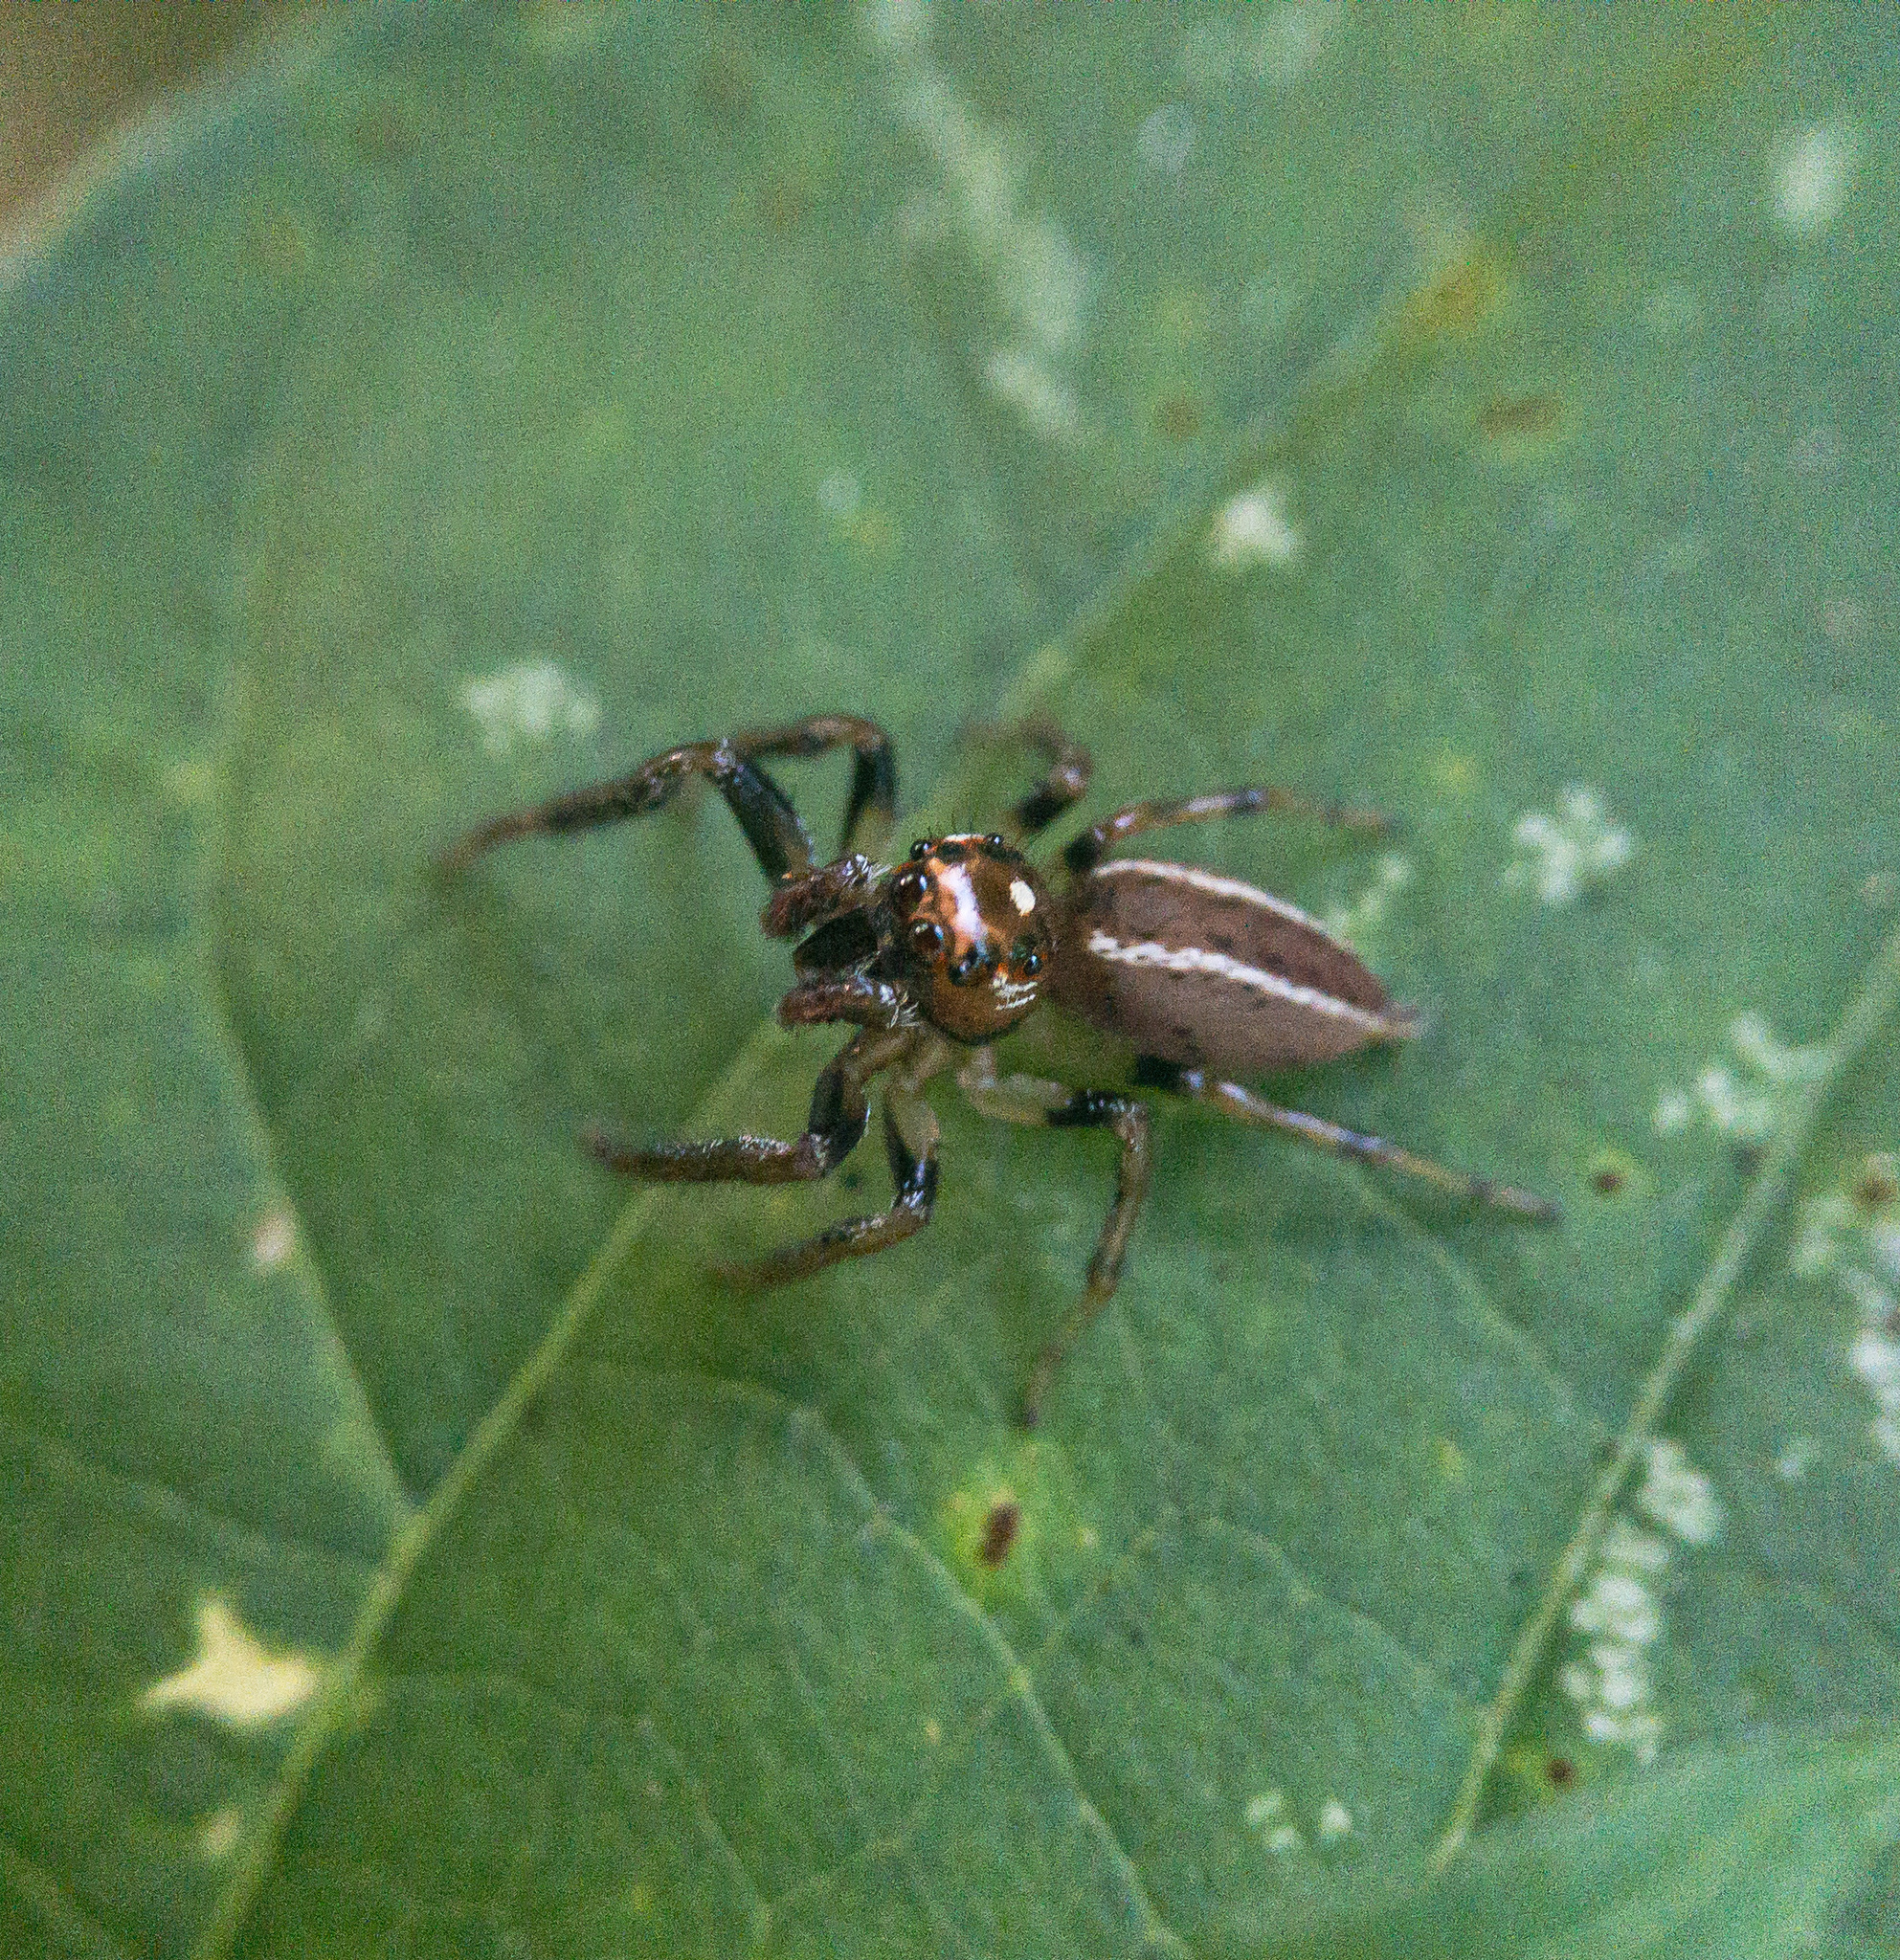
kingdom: Animalia
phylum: Arthropoda
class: Arachnida
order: Araneae
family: Salticidae
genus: Colonus
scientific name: Colonus sylvanus
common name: Jumping spiders
